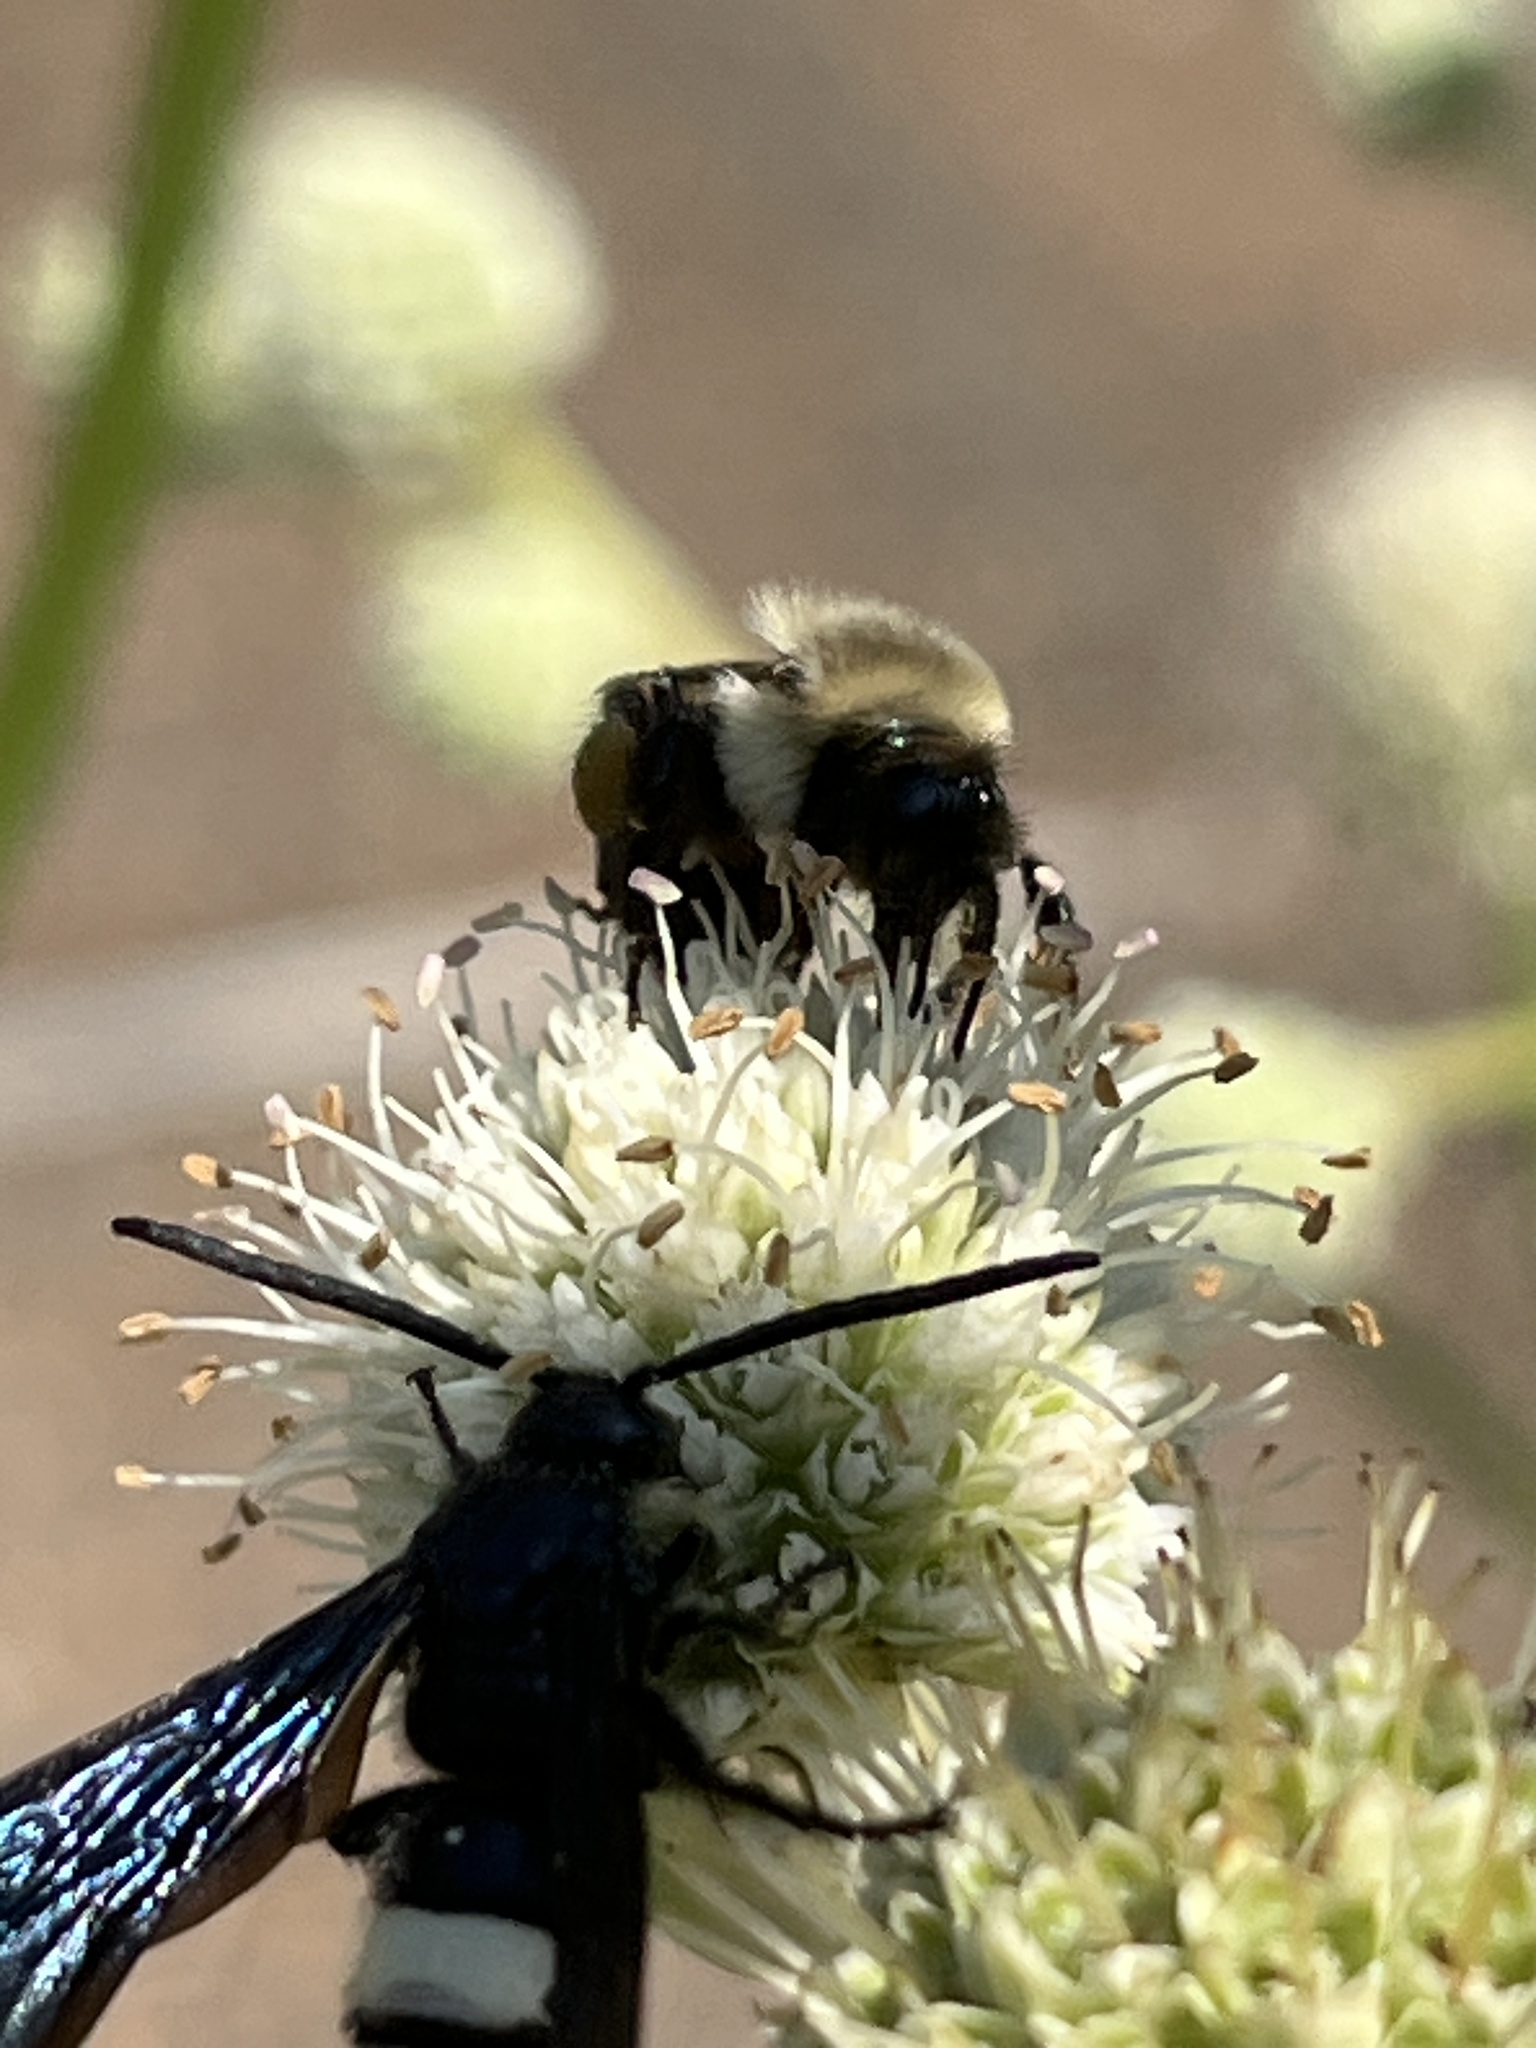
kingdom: Animalia
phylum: Arthropoda
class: Insecta
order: Hymenoptera
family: Apidae
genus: Bombus
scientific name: Bombus impatiens
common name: Common eastern bumble bee
